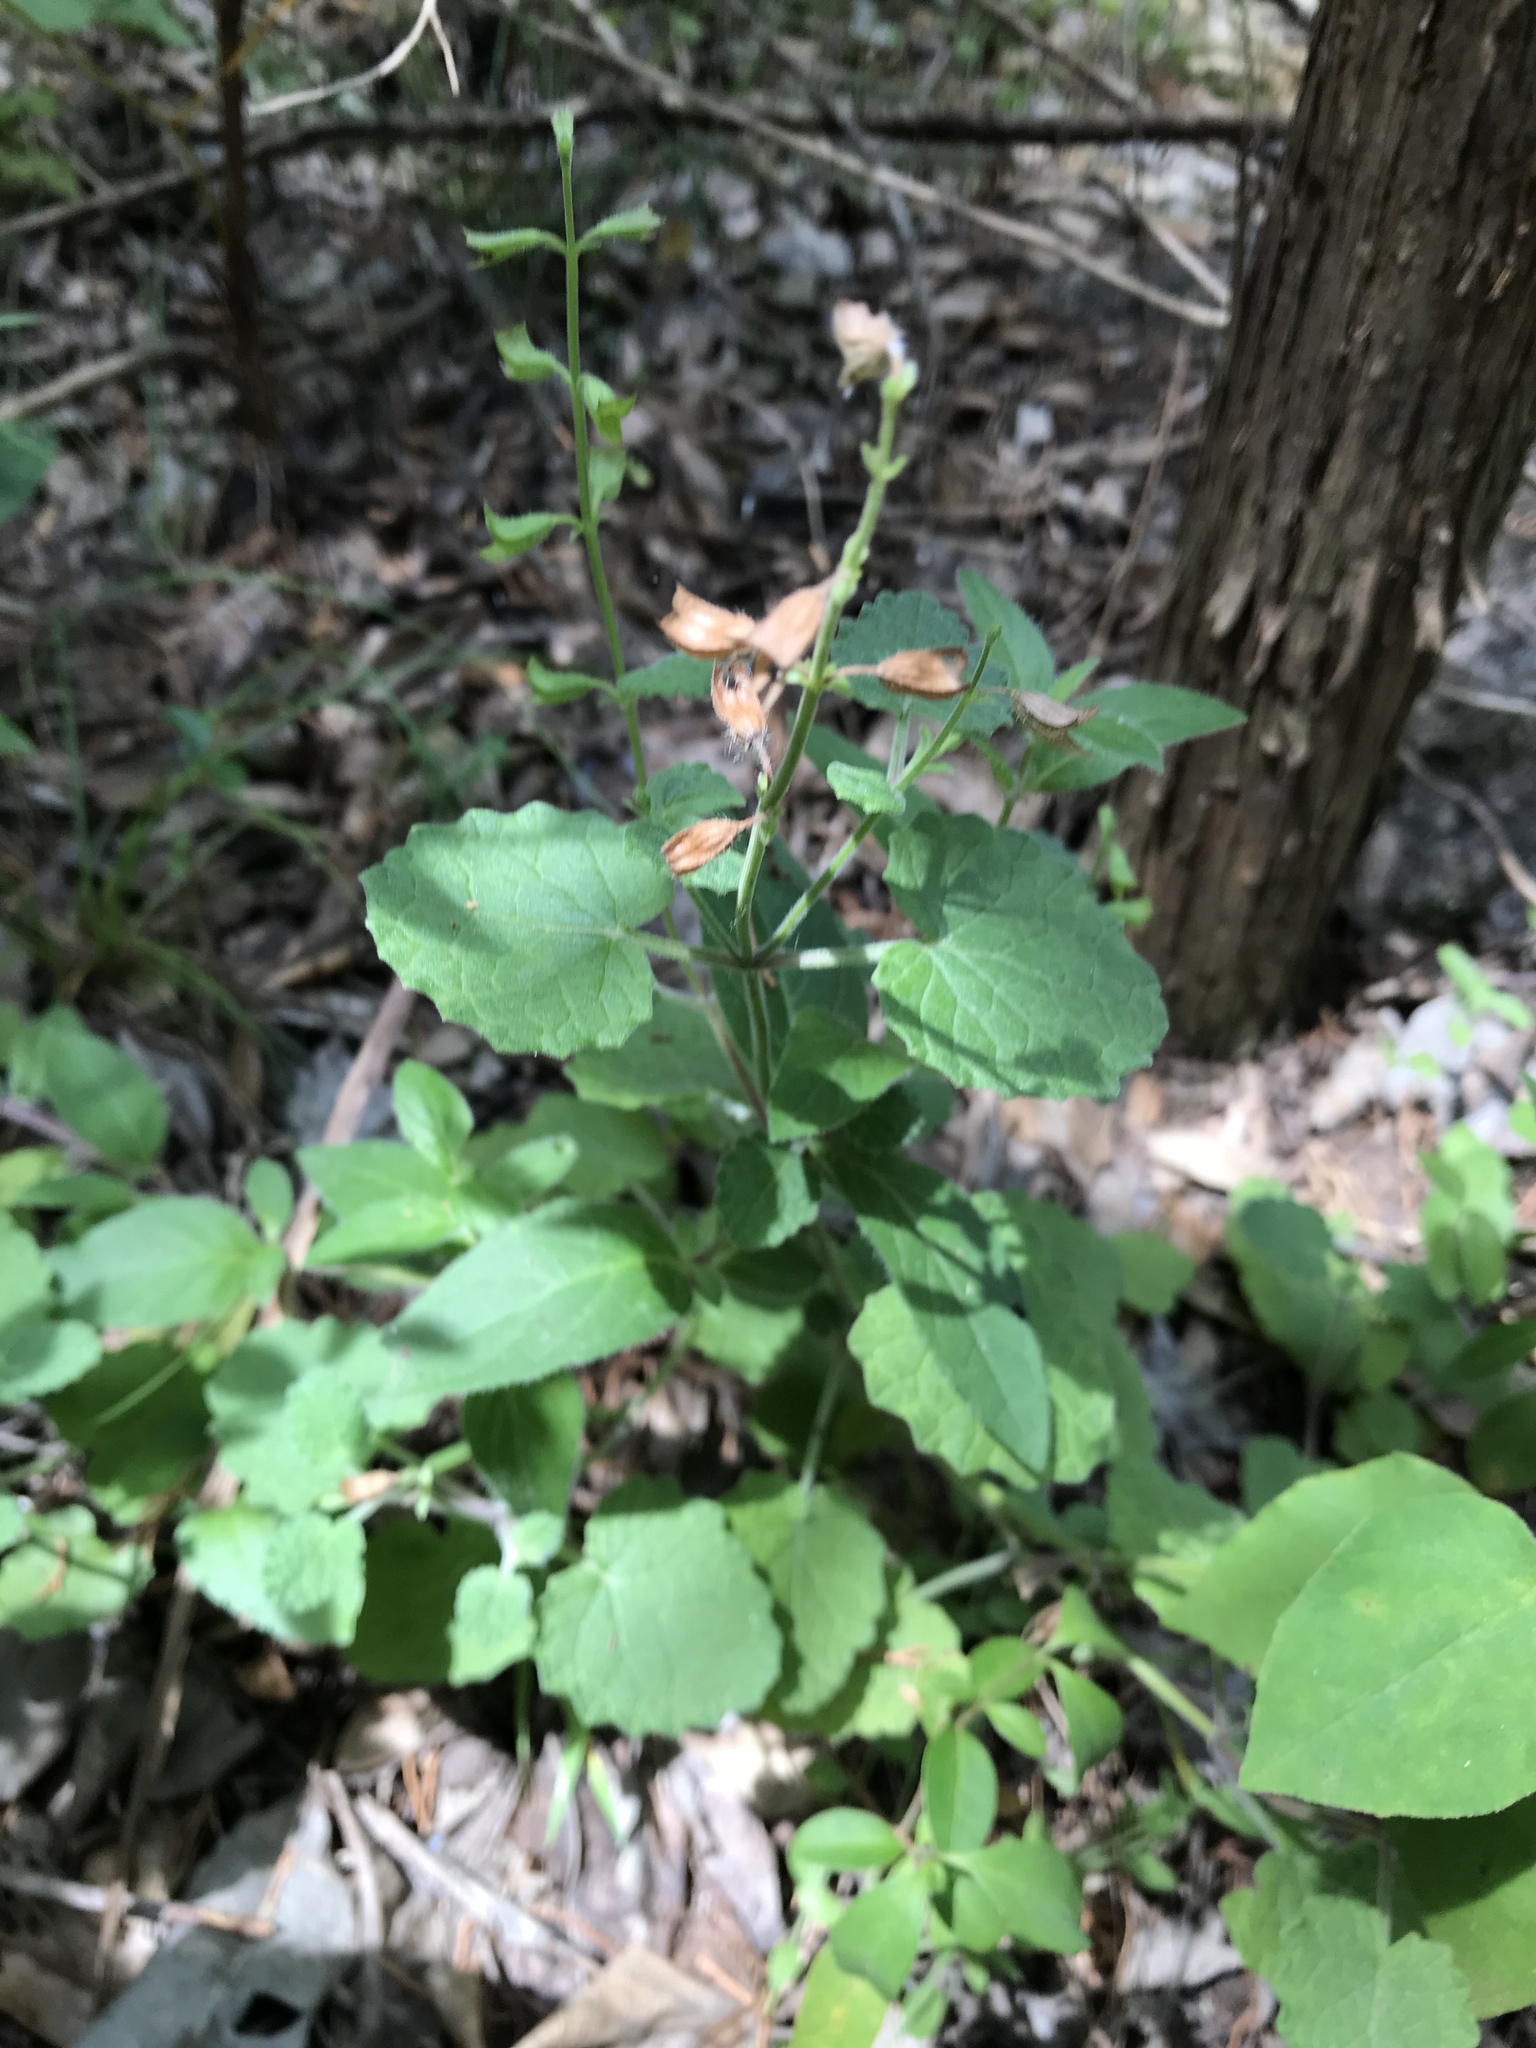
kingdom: Plantae
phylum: Tracheophyta
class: Magnoliopsida
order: Lamiales
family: Lamiaceae
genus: Salvia
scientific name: Salvia roemeriana
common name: Cedar sage
